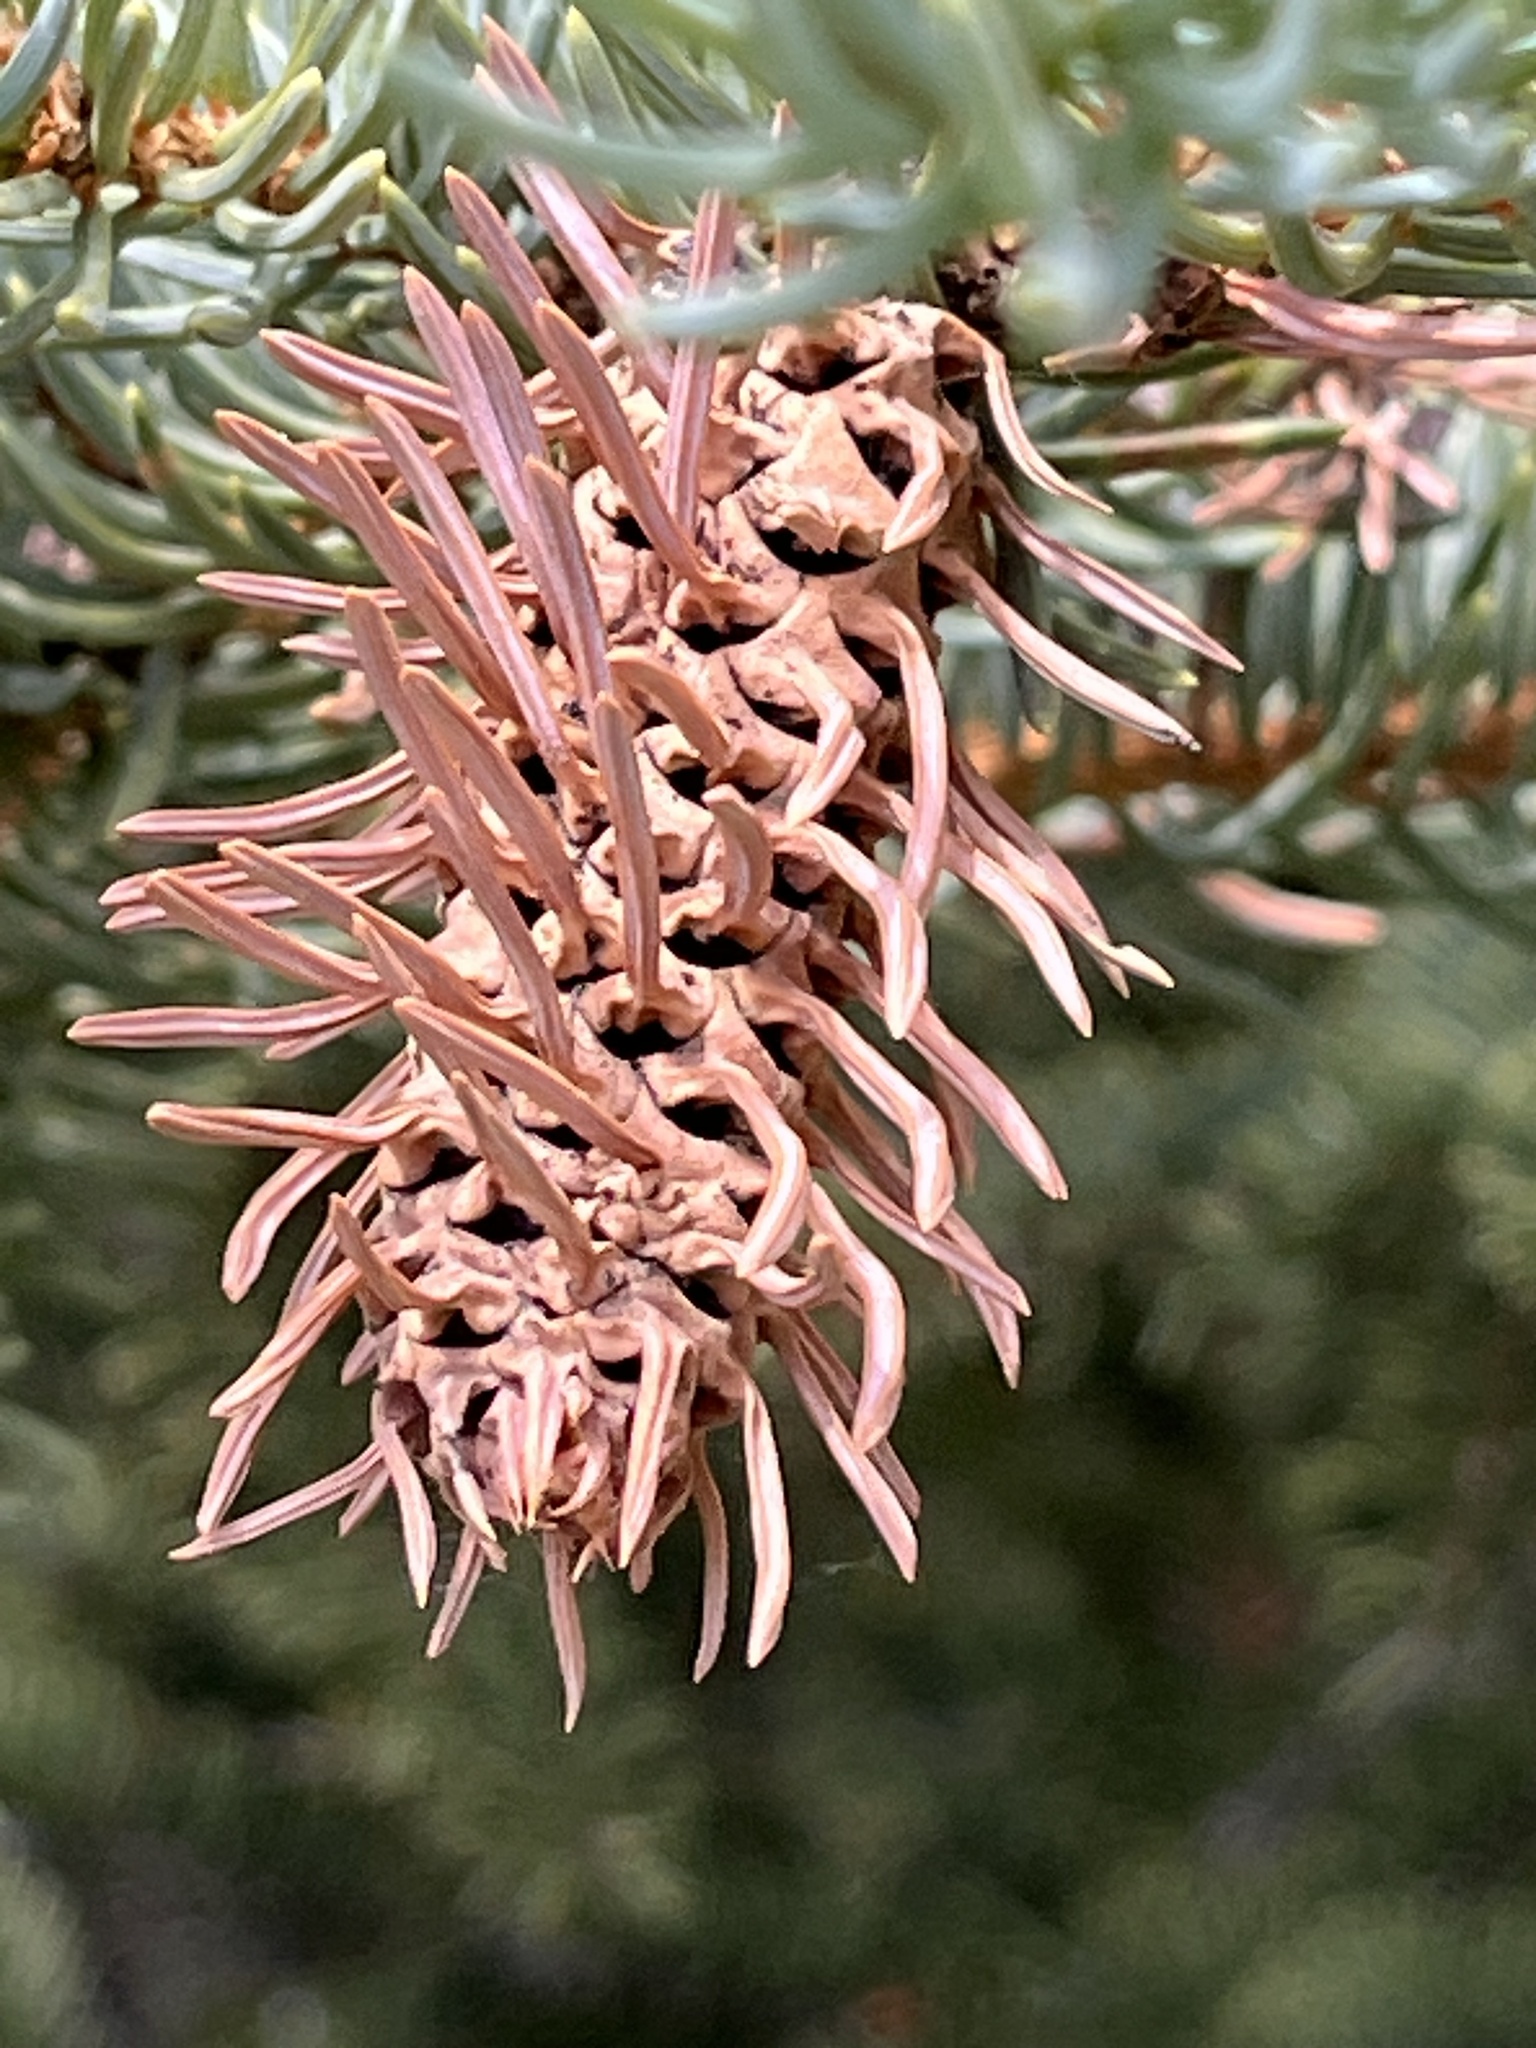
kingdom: Animalia
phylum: Arthropoda
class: Insecta
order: Hemiptera
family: Adelgidae
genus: Adelges
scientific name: Adelges cooleyi
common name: Cooley spruce gall adelgid
